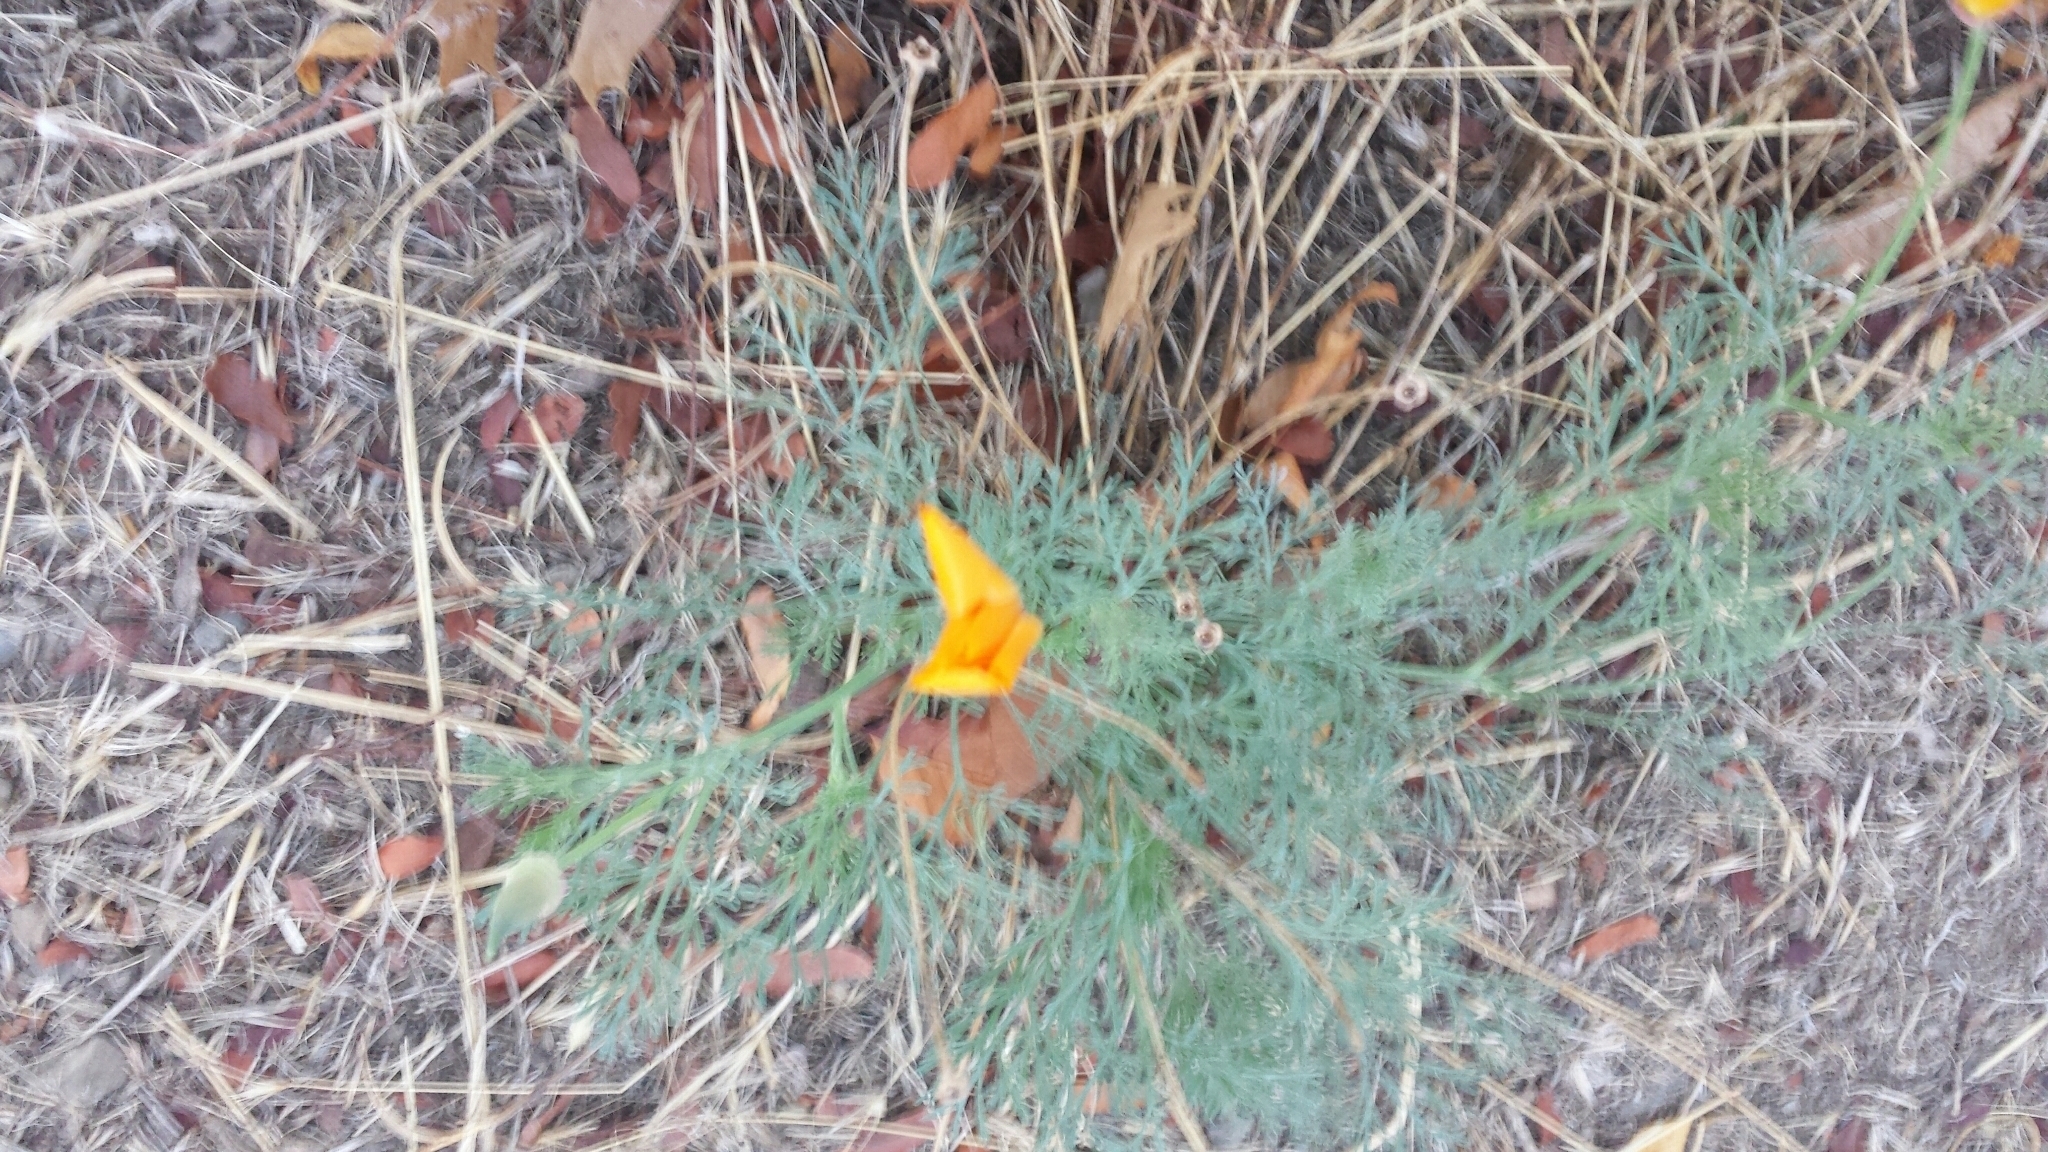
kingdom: Plantae
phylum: Tracheophyta
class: Magnoliopsida
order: Ranunculales
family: Papaveraceae
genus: Eschscholzia
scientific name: Eschscholzia californica
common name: California poppy
